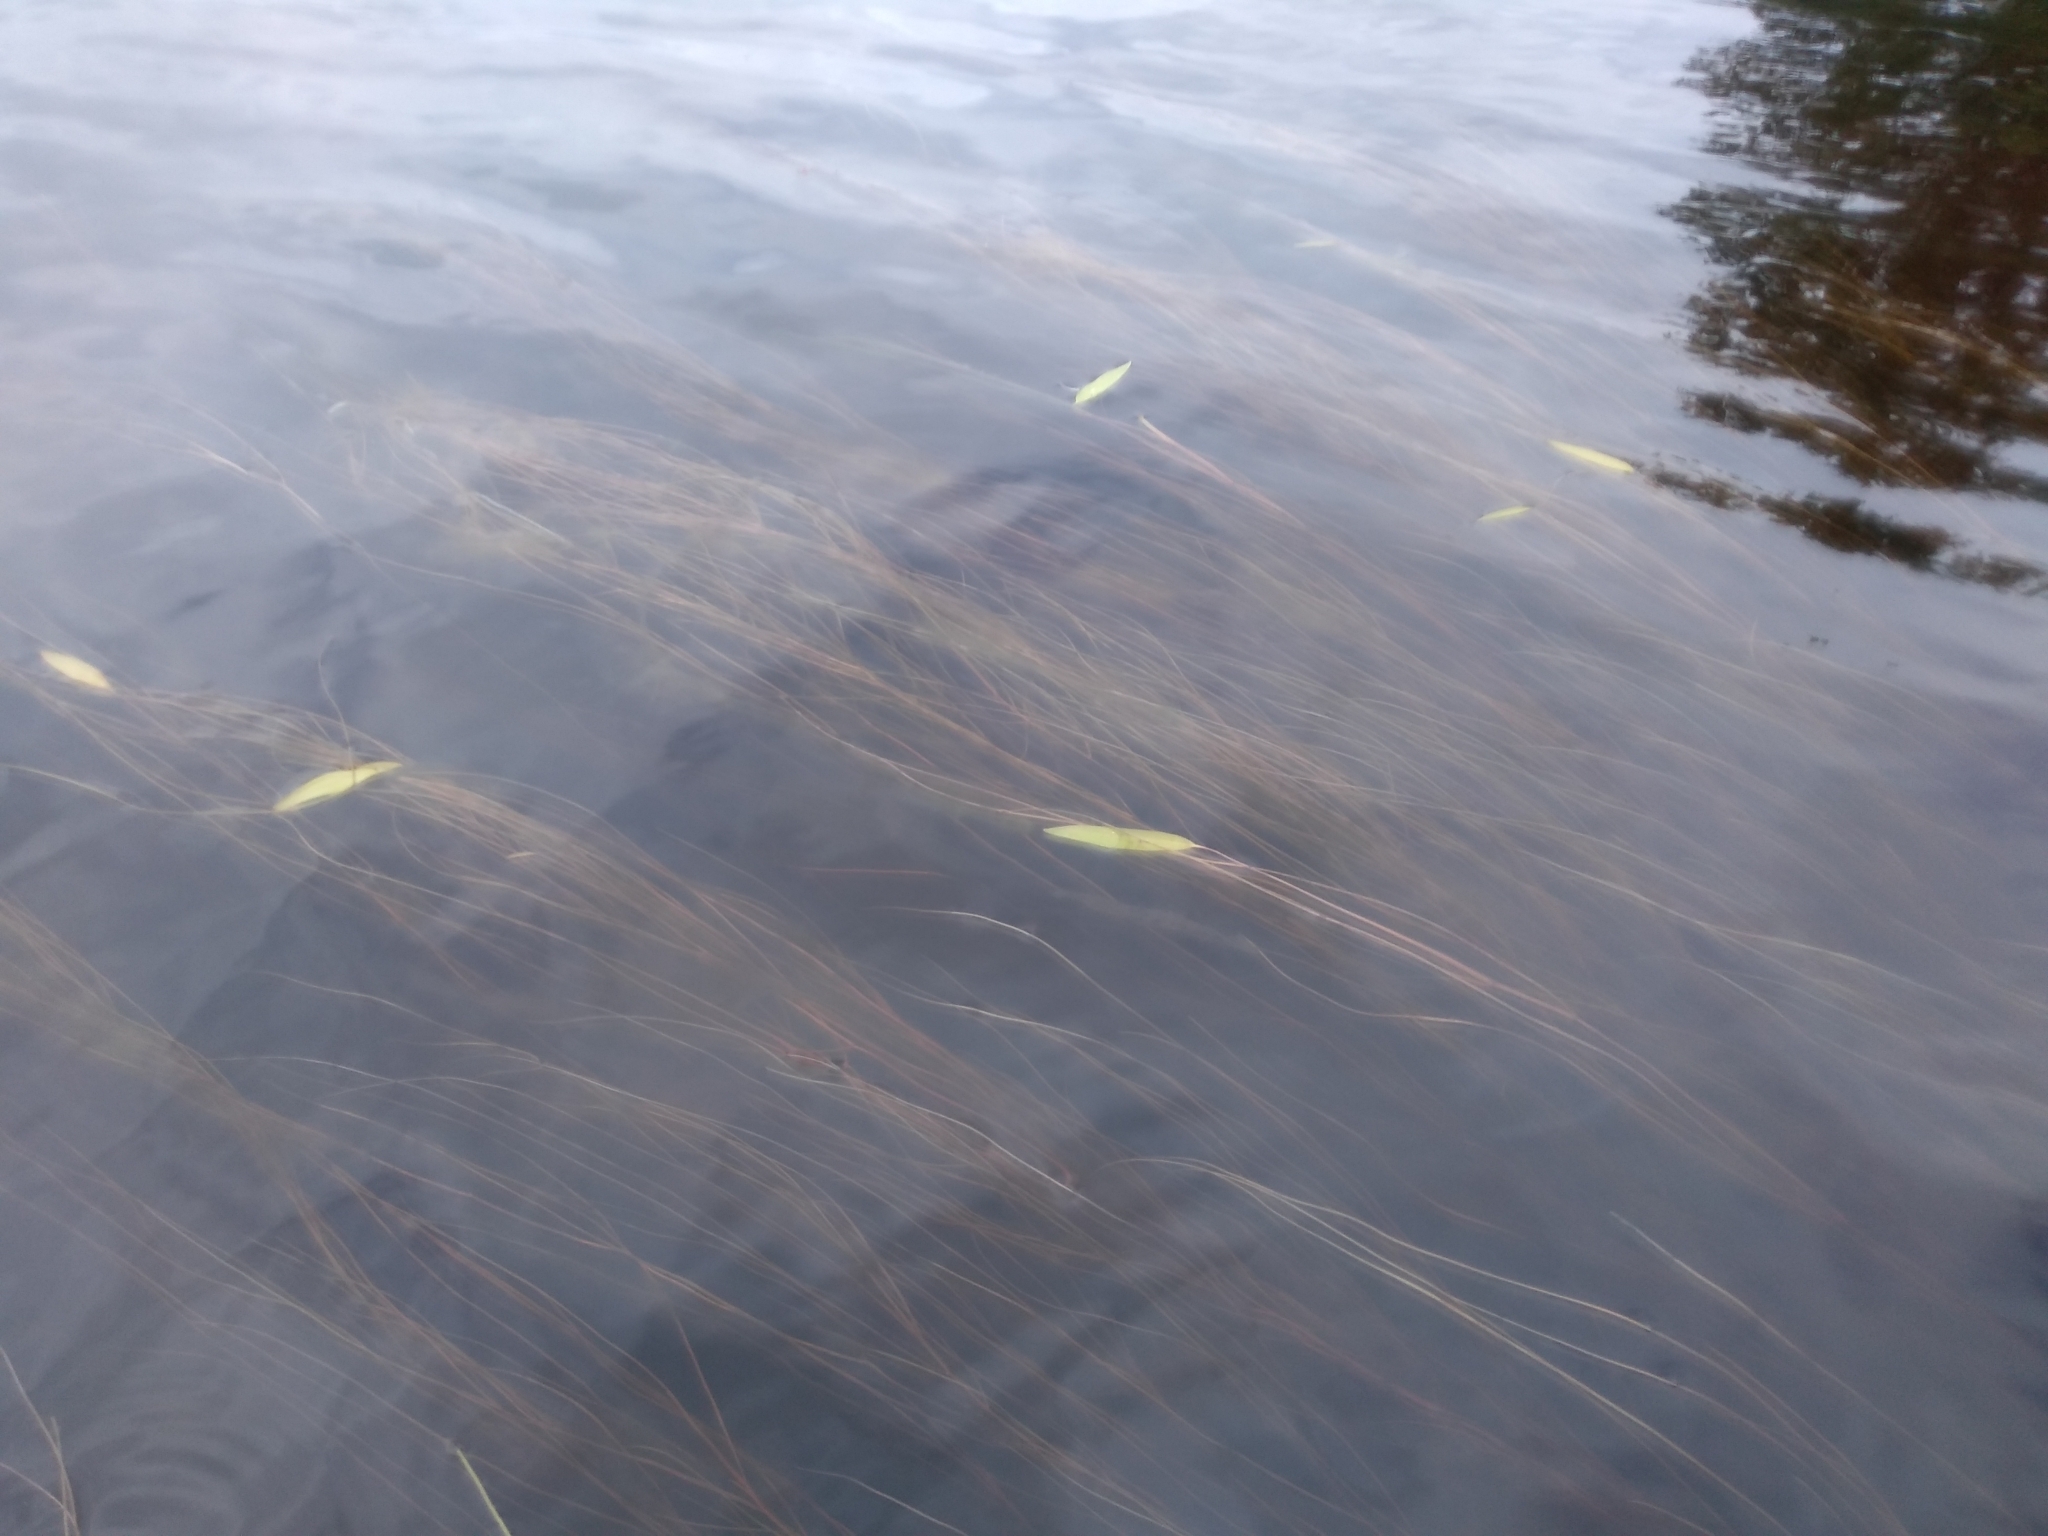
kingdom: Plantae
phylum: Tracheophyta
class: Liliopsida
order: Alismatales
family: Potamogetonaceae
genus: Potamogeton
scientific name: Potamogeton oakesianus
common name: Oakes' pondweed
